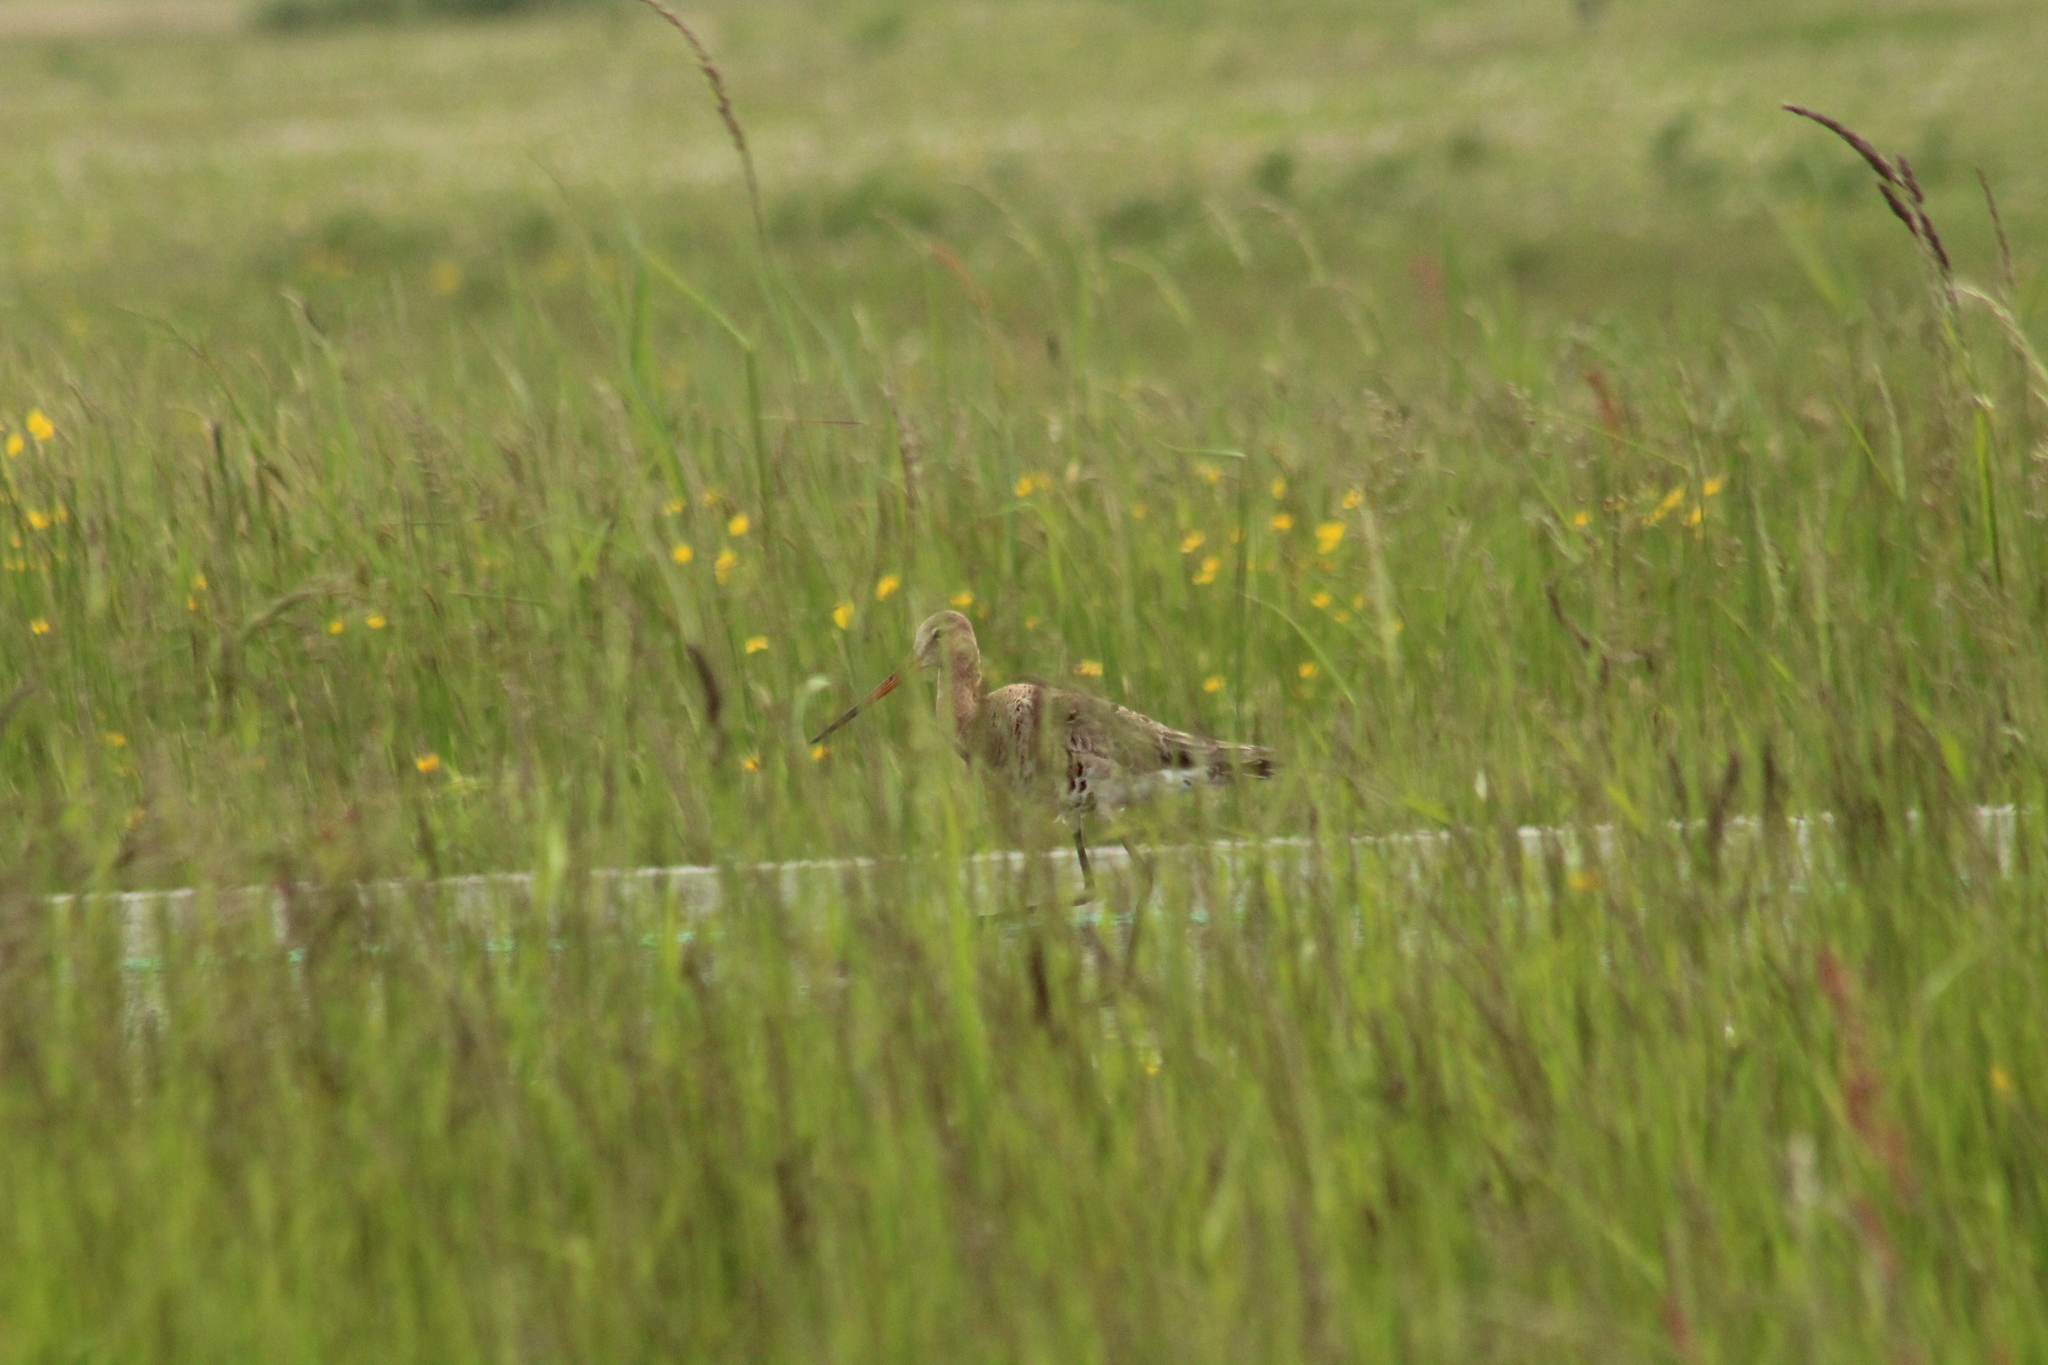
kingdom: Animalia
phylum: Chordata
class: Aves
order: Charadriiformes
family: Scolopacidae
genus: Limosa
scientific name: Limosa limosa
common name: Black-tailed godwit
